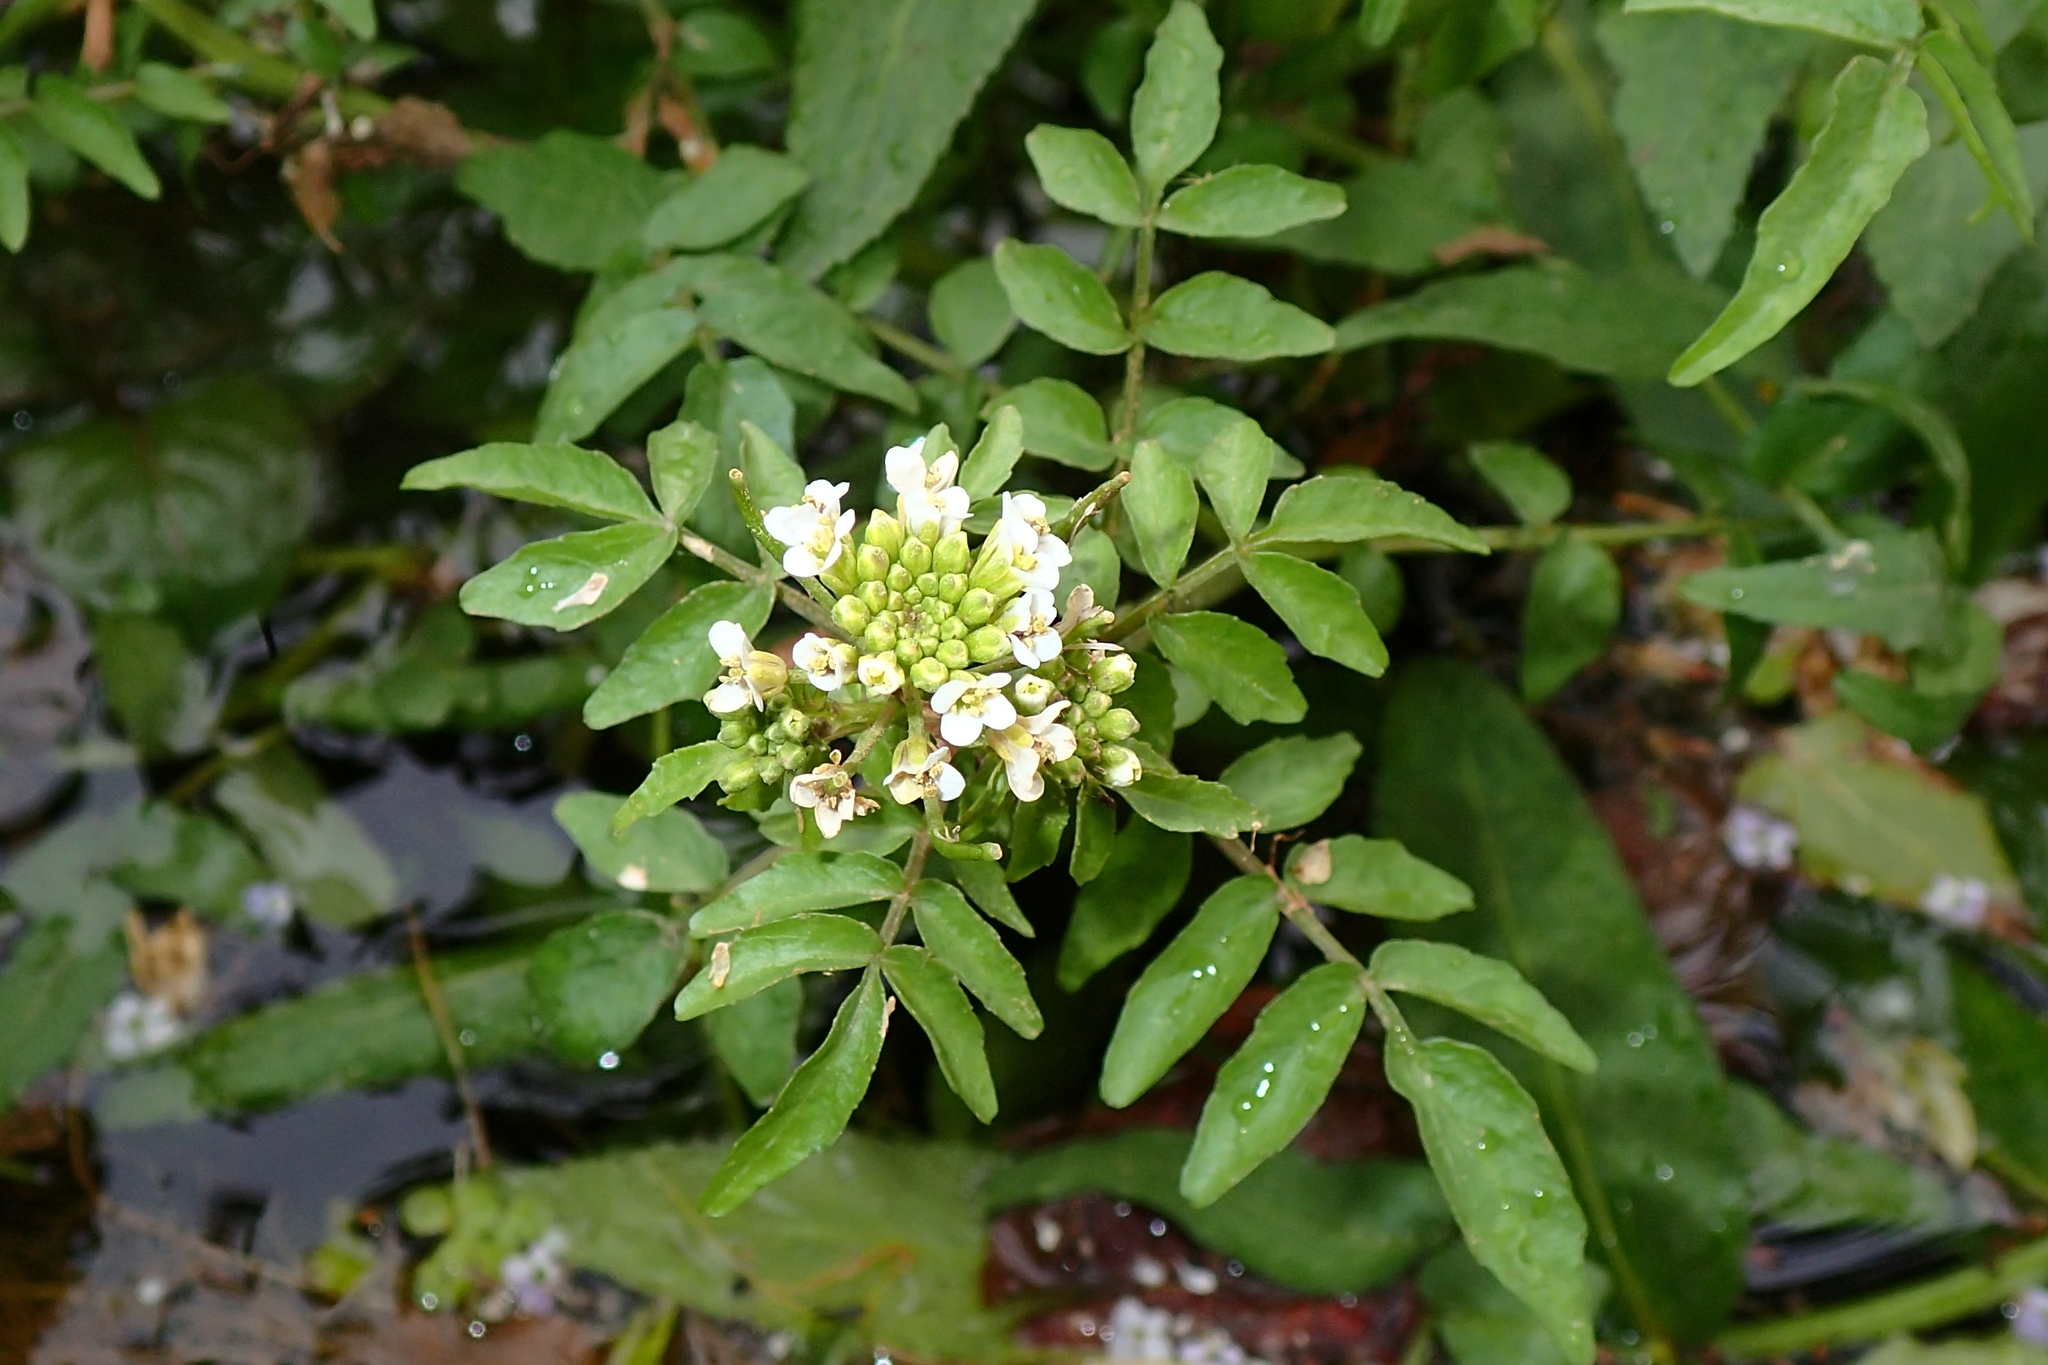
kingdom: Plantae
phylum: Tracheophyta
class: Magnoliopsida
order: Brassicales
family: Brassicaceae
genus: Nasturtium
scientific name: Nasturtium officinale
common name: Watercress
